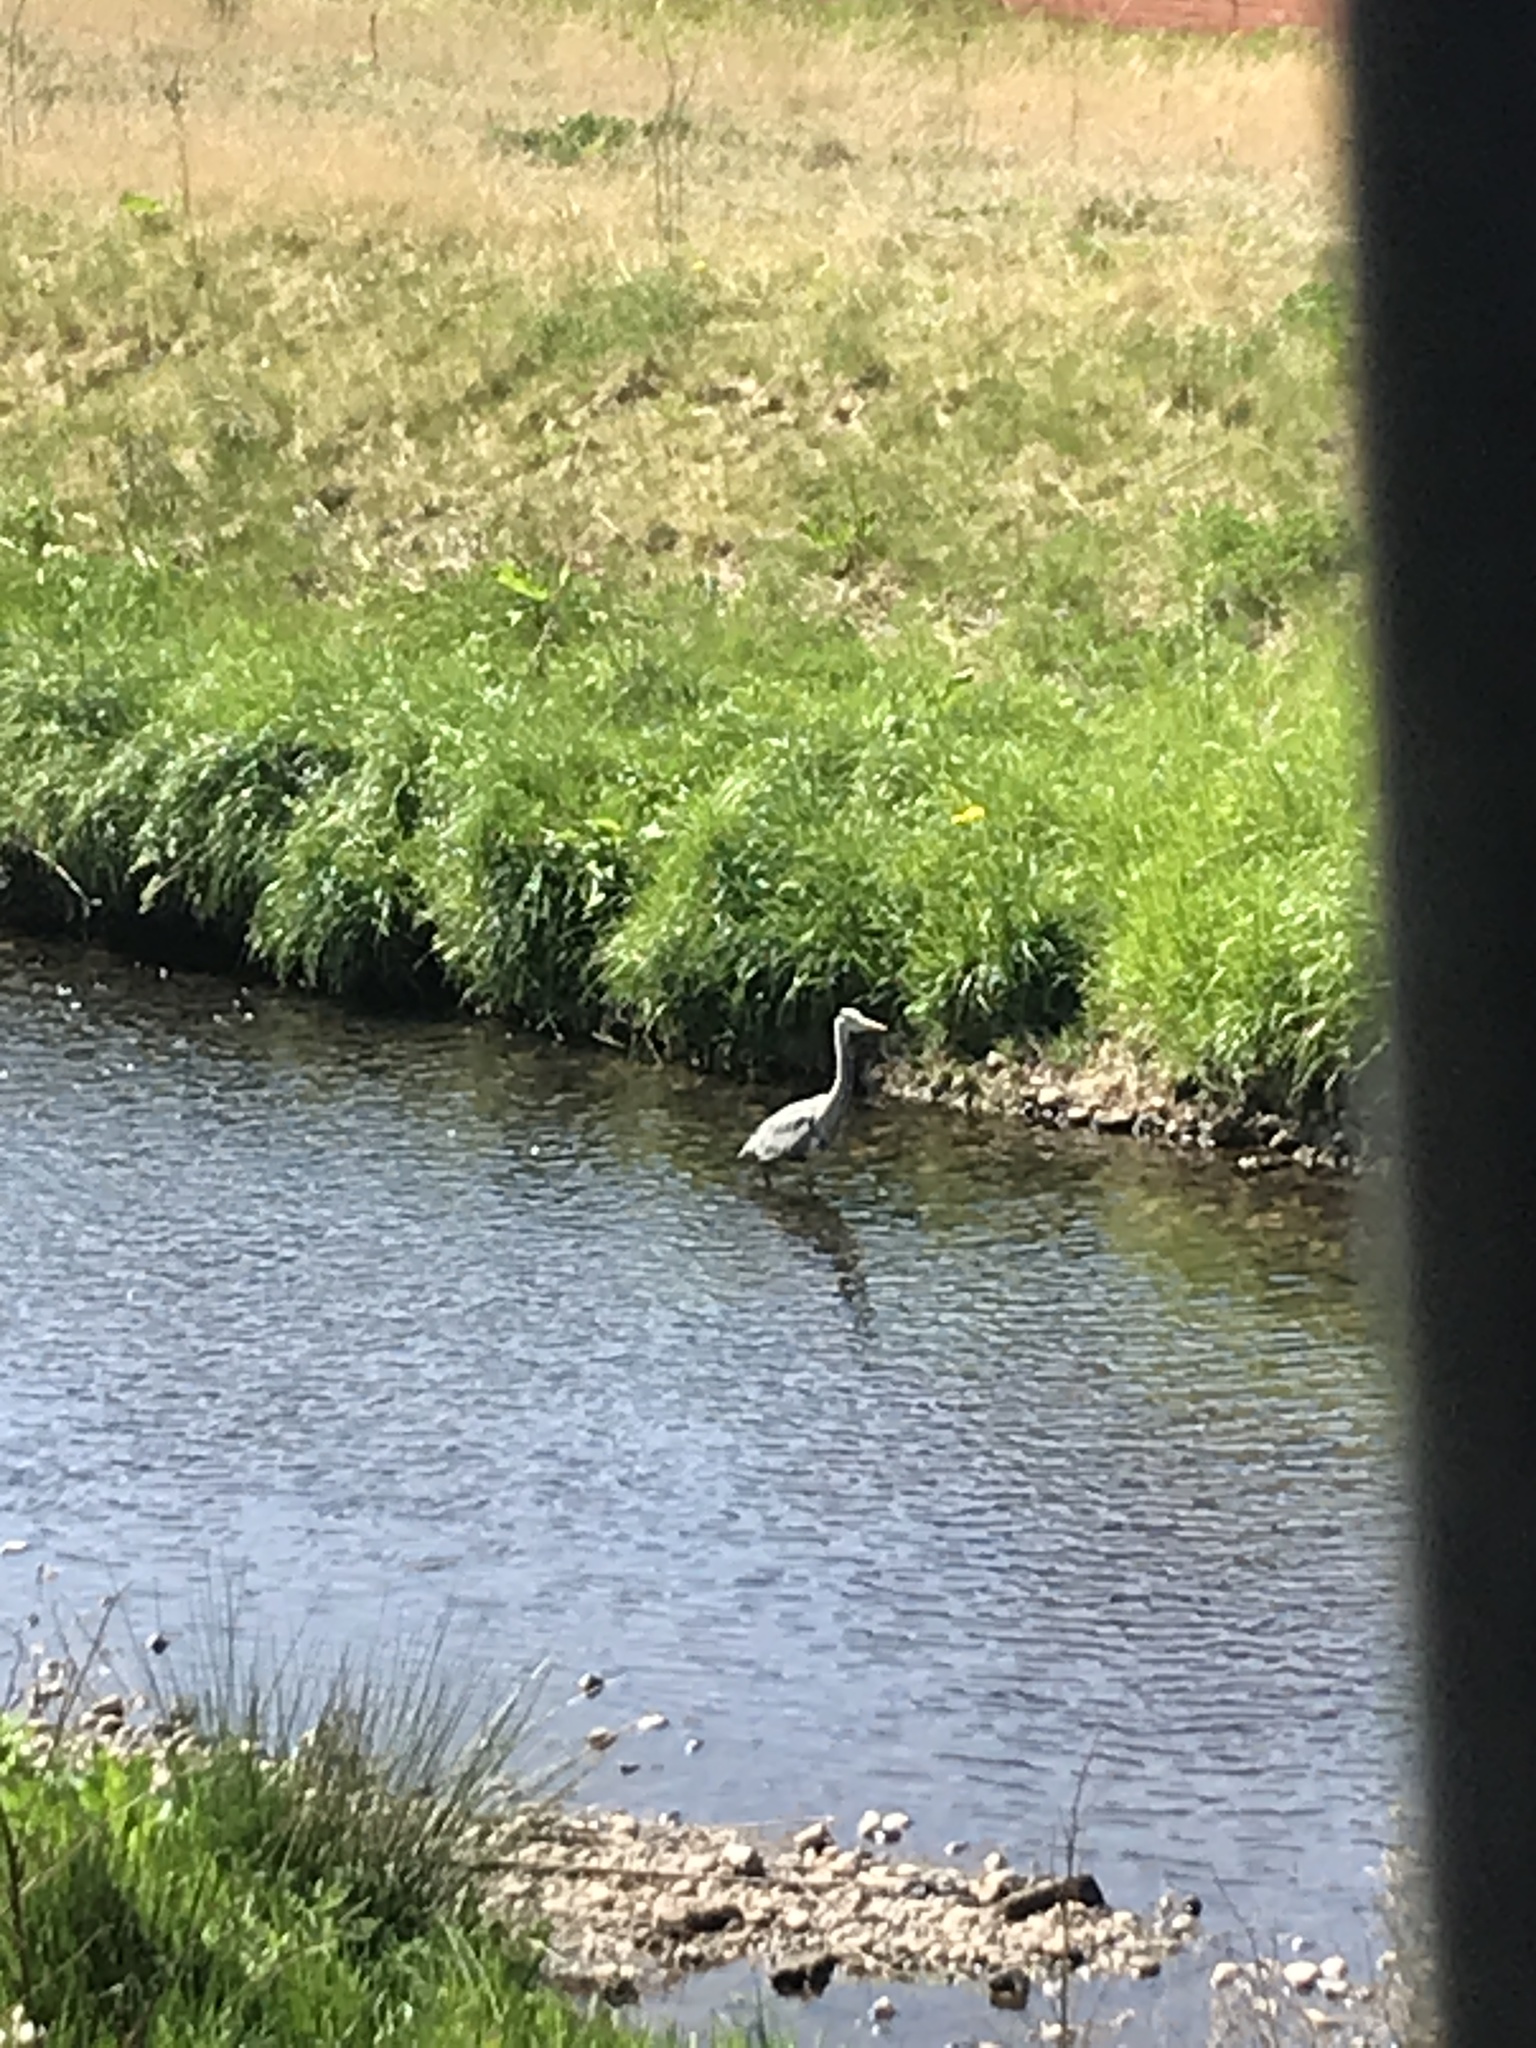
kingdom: Animalia
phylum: Chordata
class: Aves
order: Pelecaniformes
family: Ardeidae
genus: Ardea
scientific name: Ardea cinerea
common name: Grey heron
